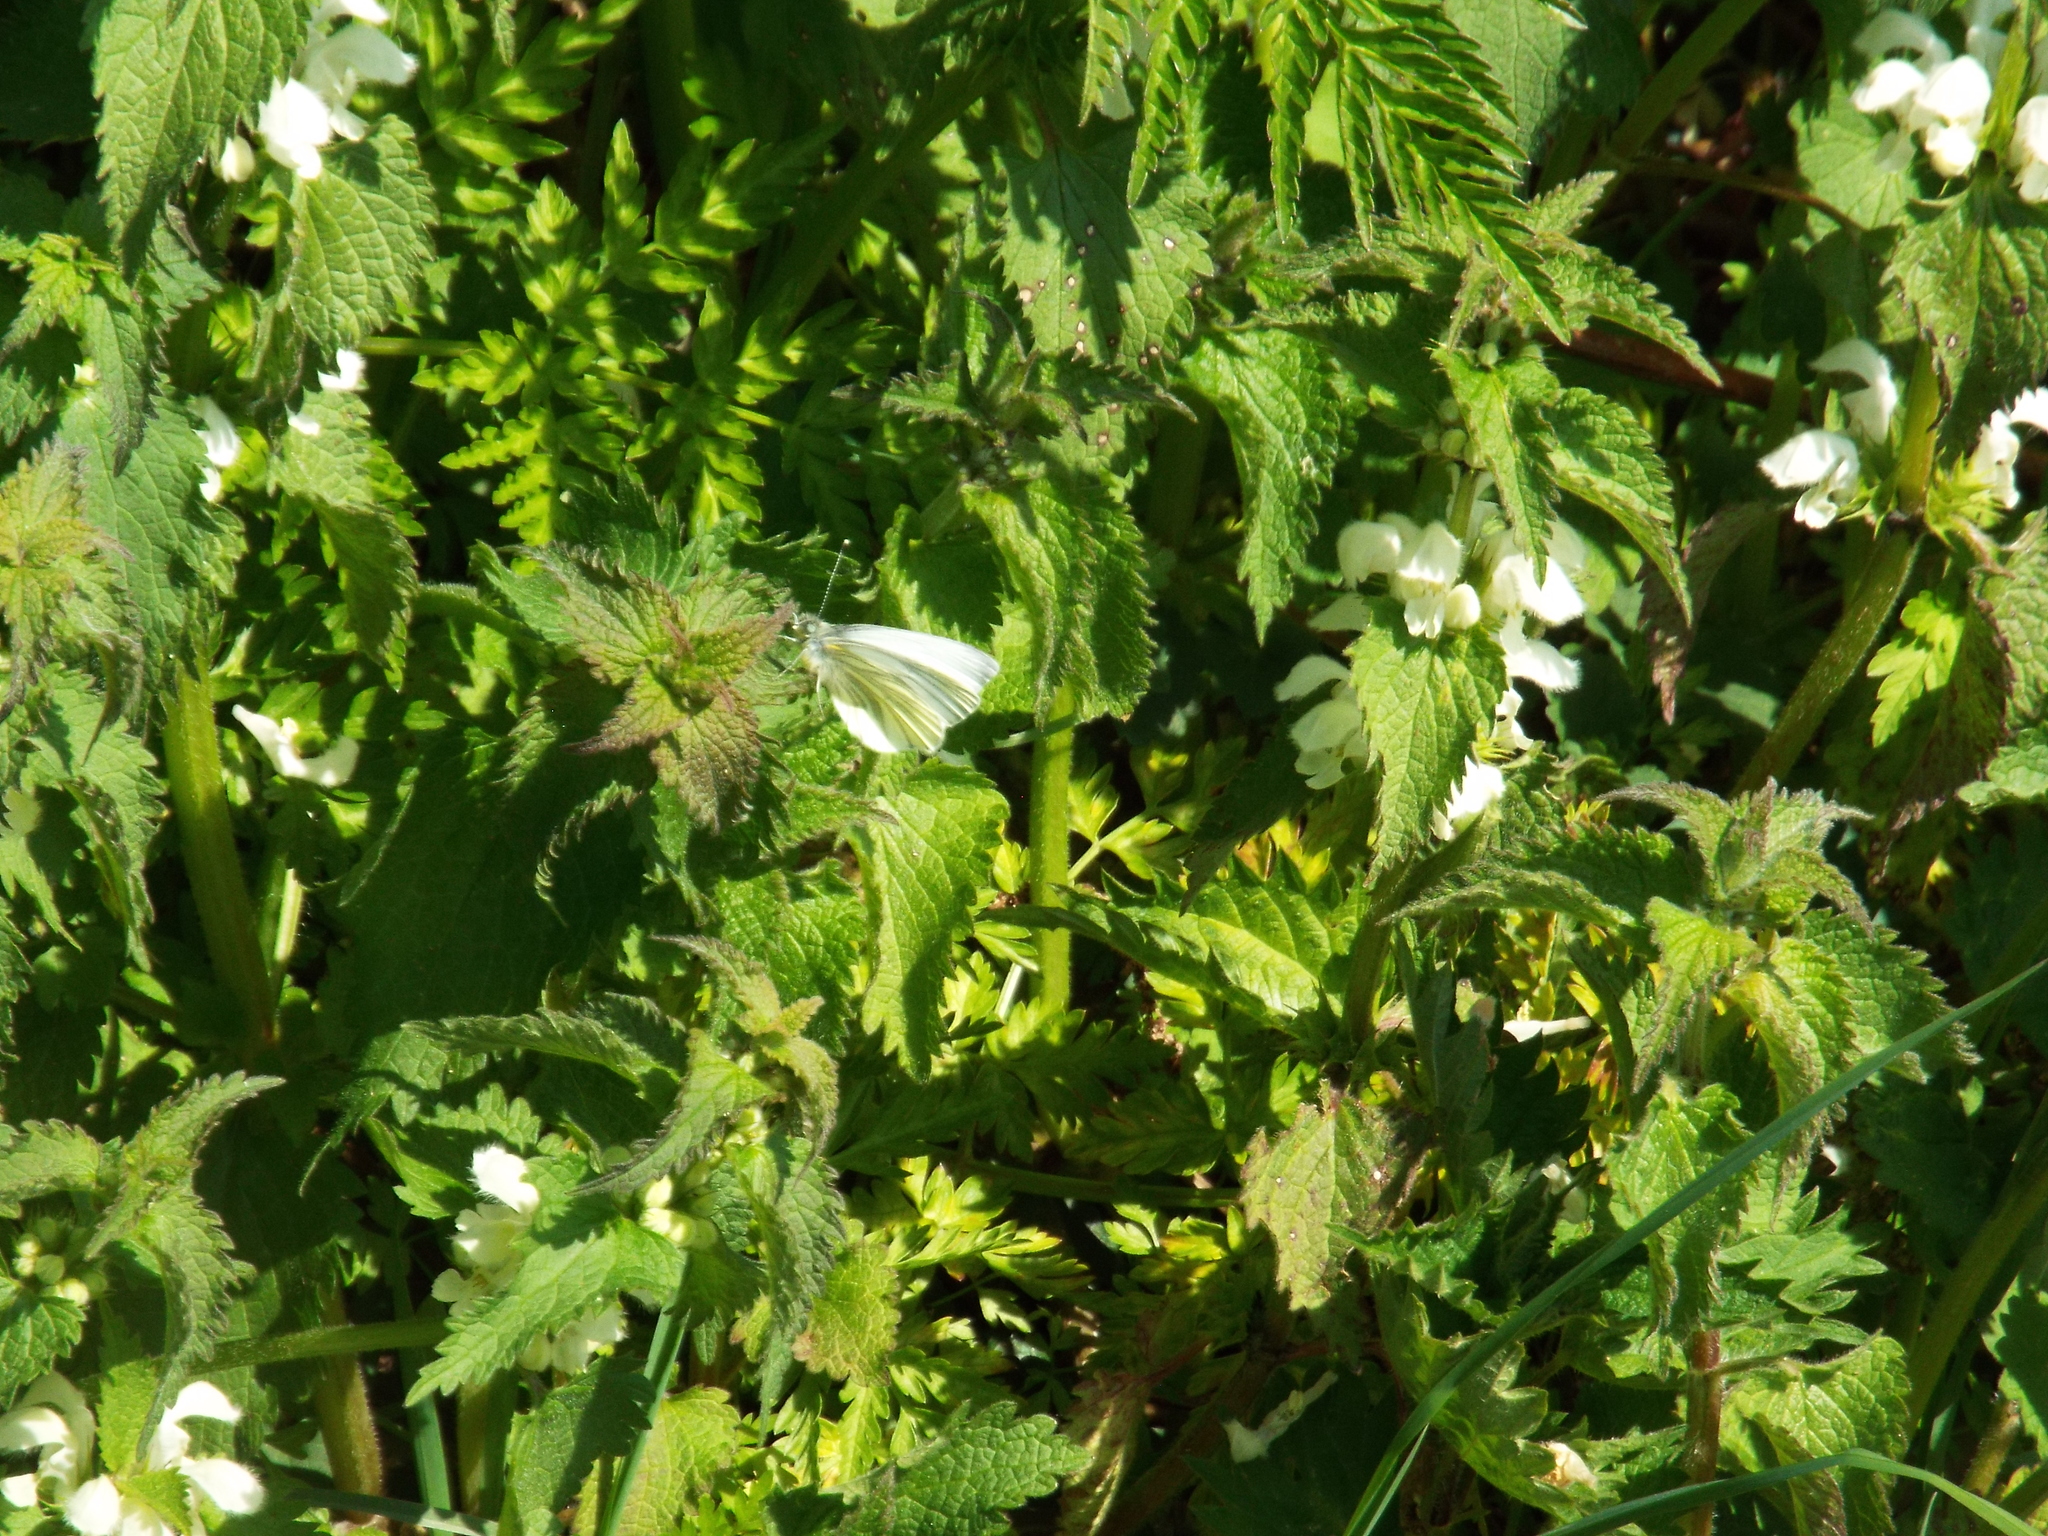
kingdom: Animalia
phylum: Arthropoda
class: Insecta
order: Lepidoptera
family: Pieridae
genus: Pieris
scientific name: Pieris napi
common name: Green-veined white
